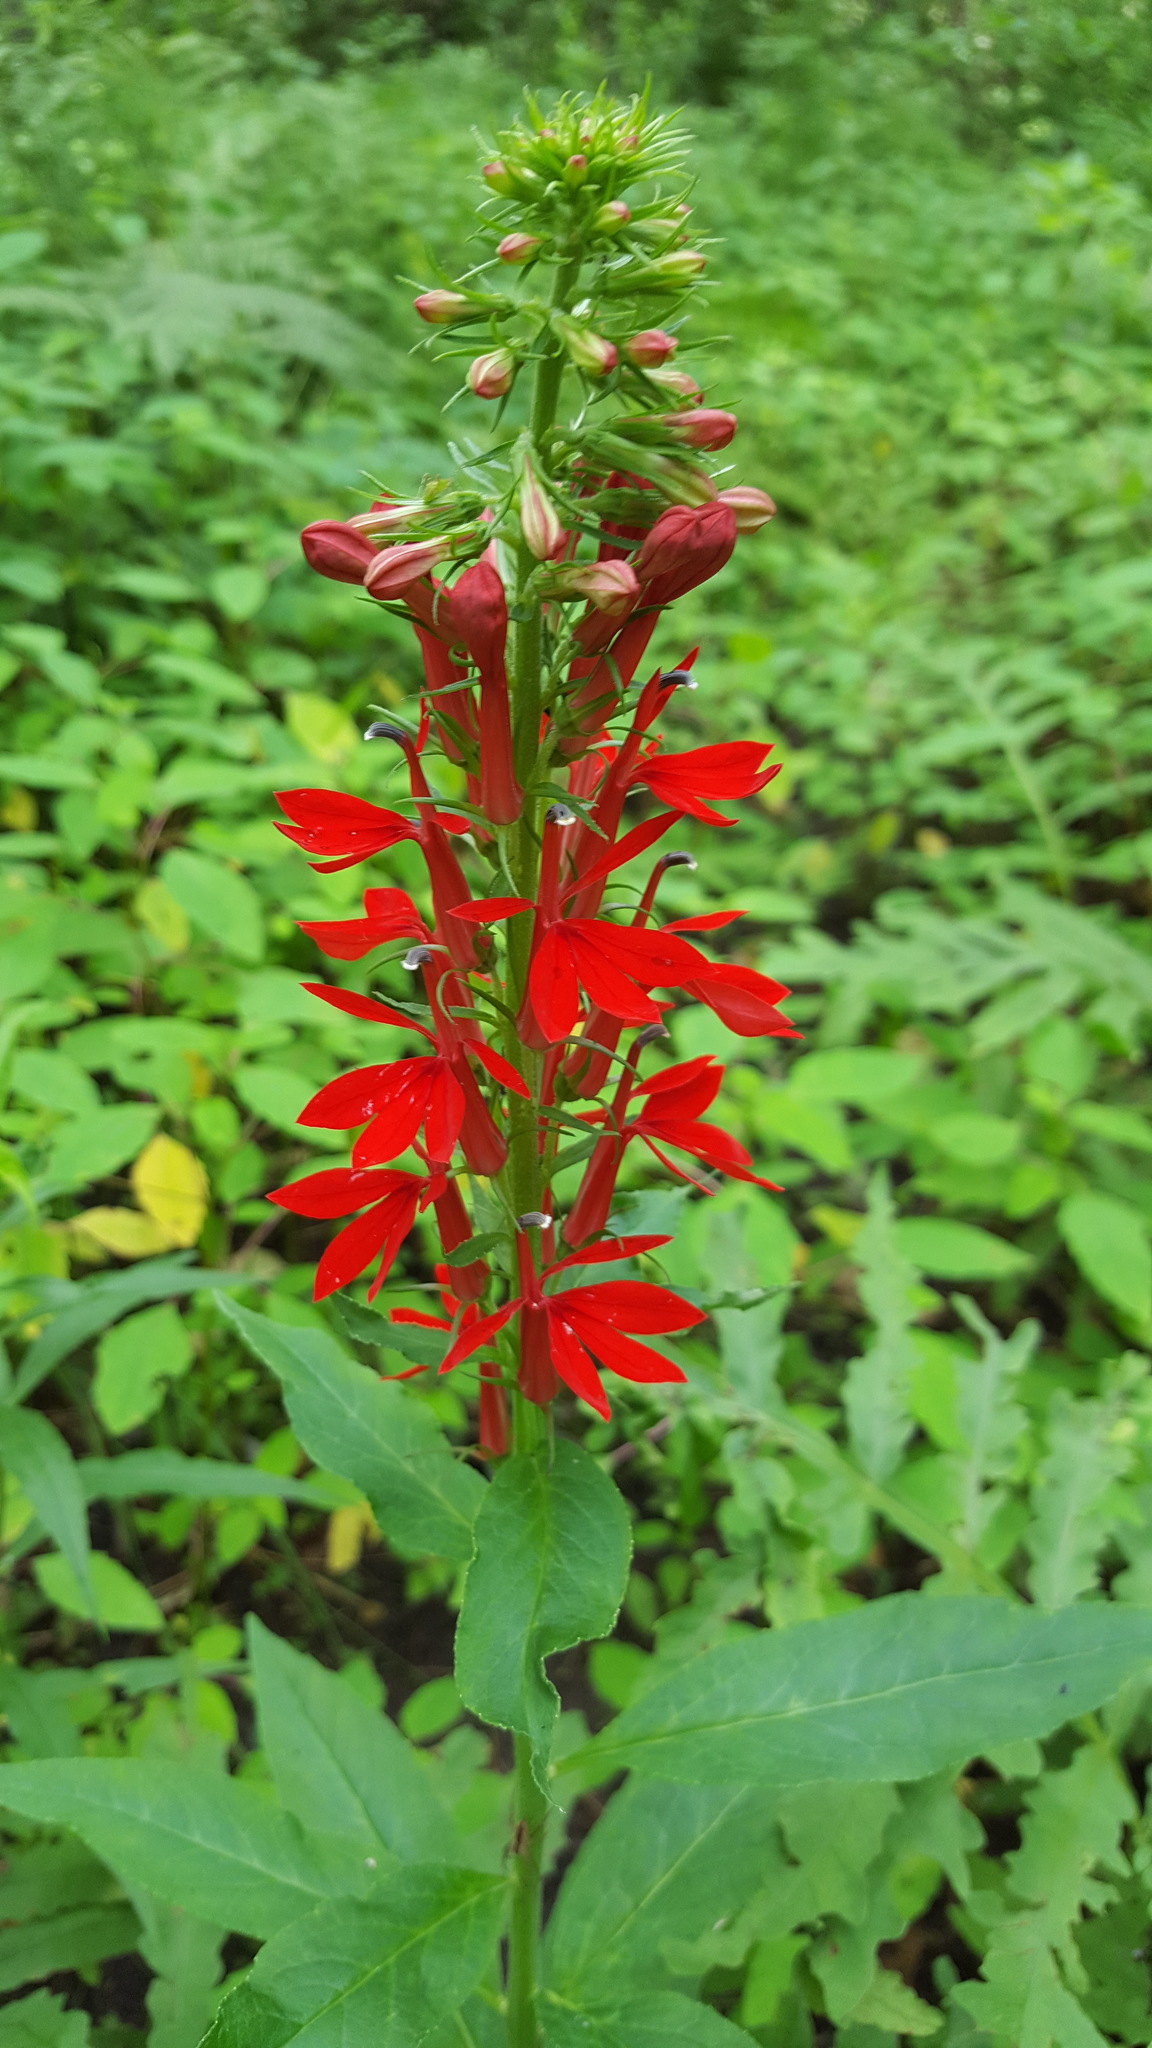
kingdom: Plantae
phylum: Tracheophyta
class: Magnoliopsida
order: Asterales
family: Campanulaceae
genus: Lobelia
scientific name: Lobelia cardinalis
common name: Cardinal flower
